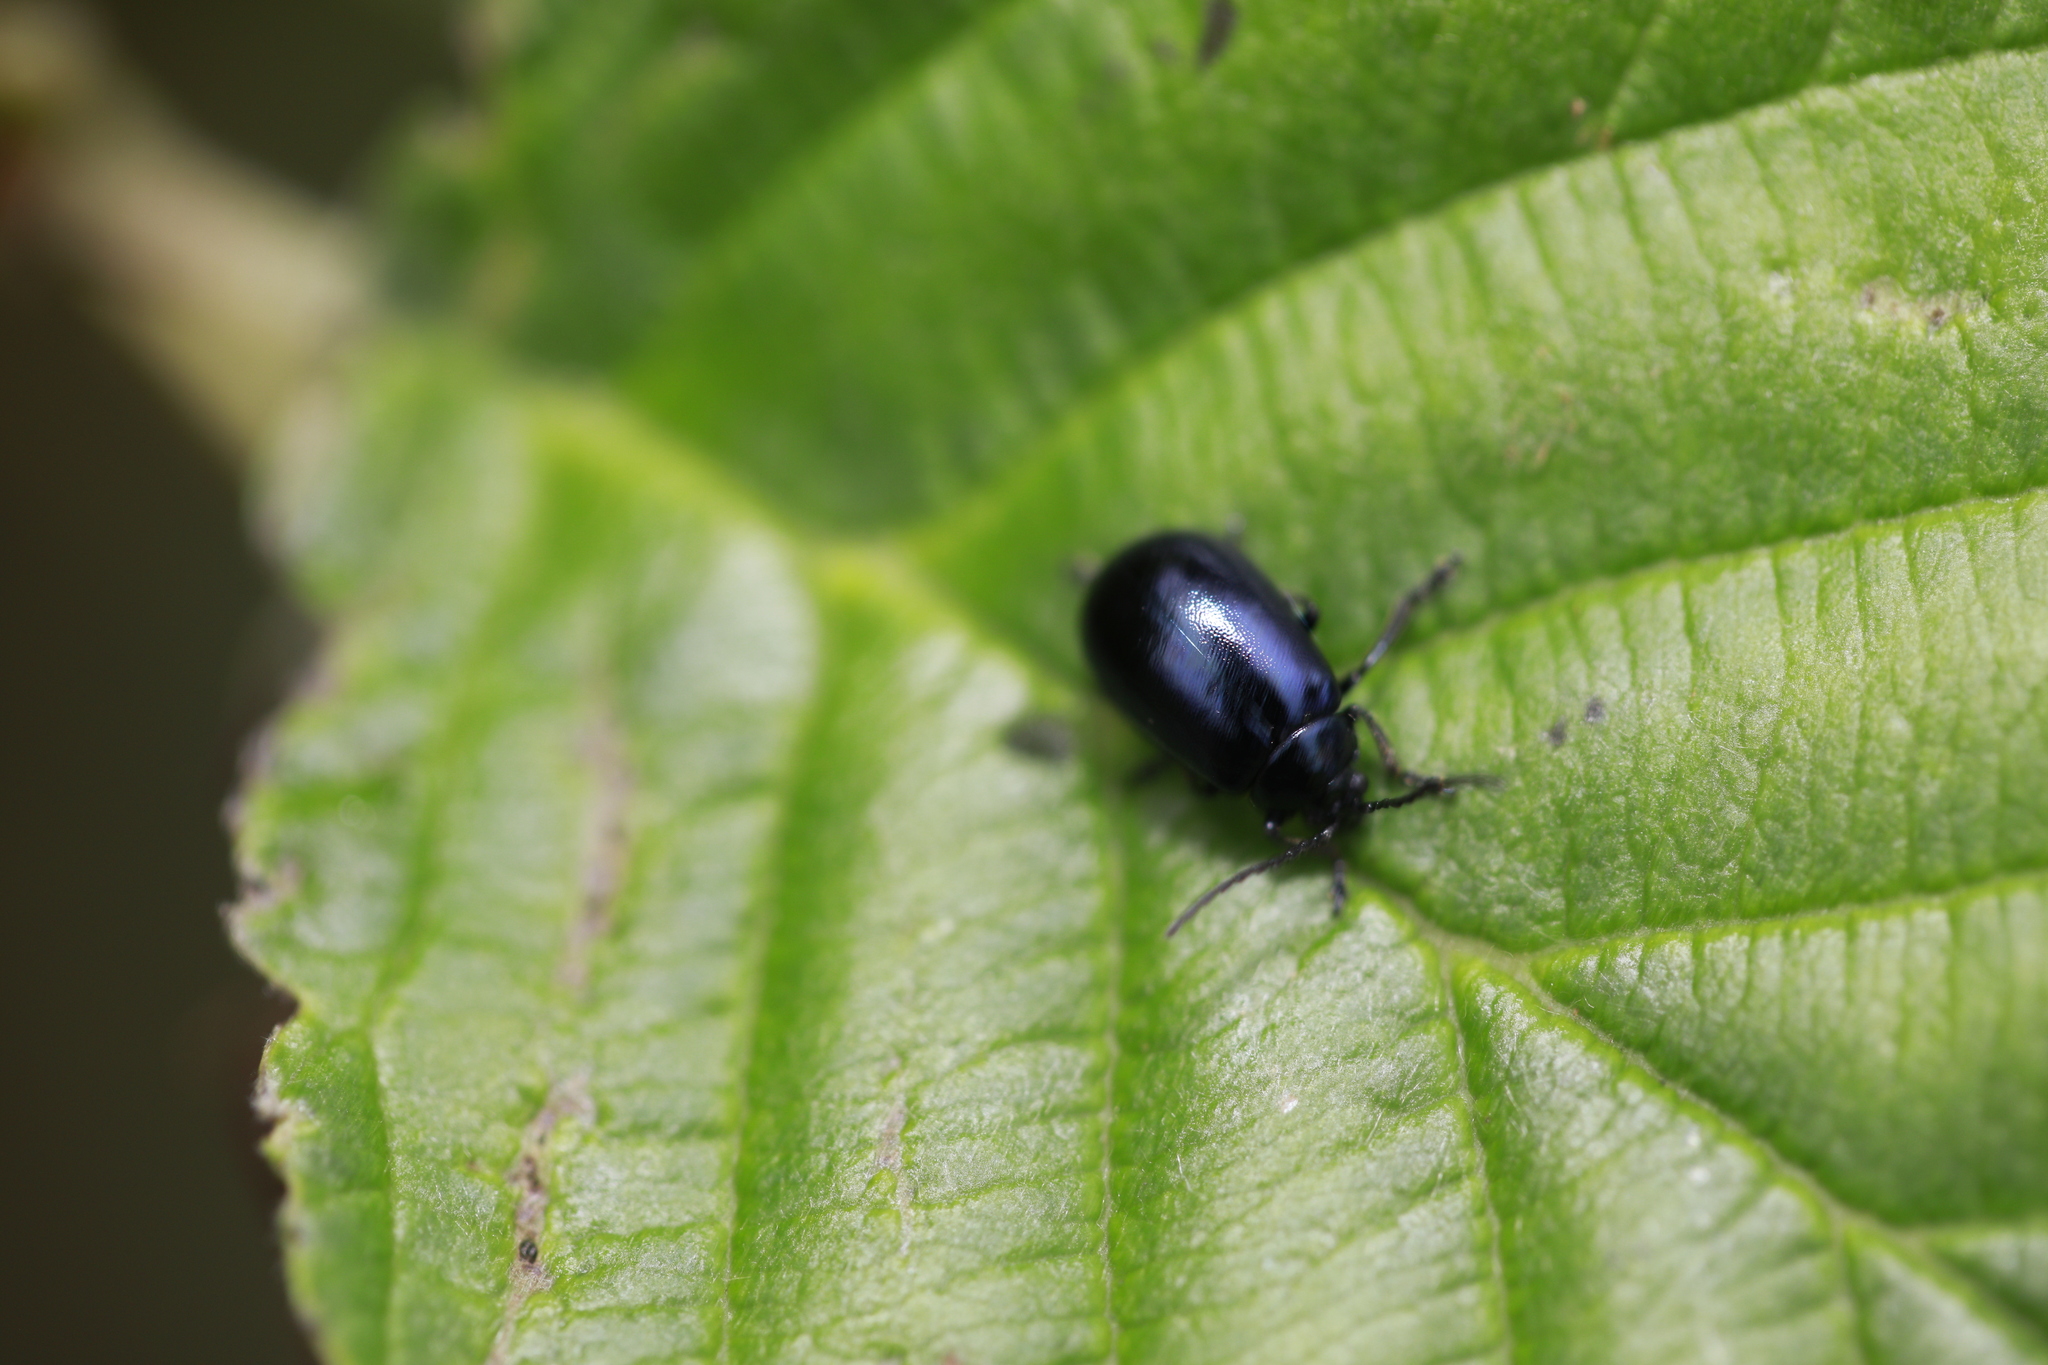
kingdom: Animalia
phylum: Arthropoda
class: Insecta
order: Coleoptera
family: Chrysomelidae
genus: Agelastica
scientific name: Agelastica alni
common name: Alder leaf beetle
